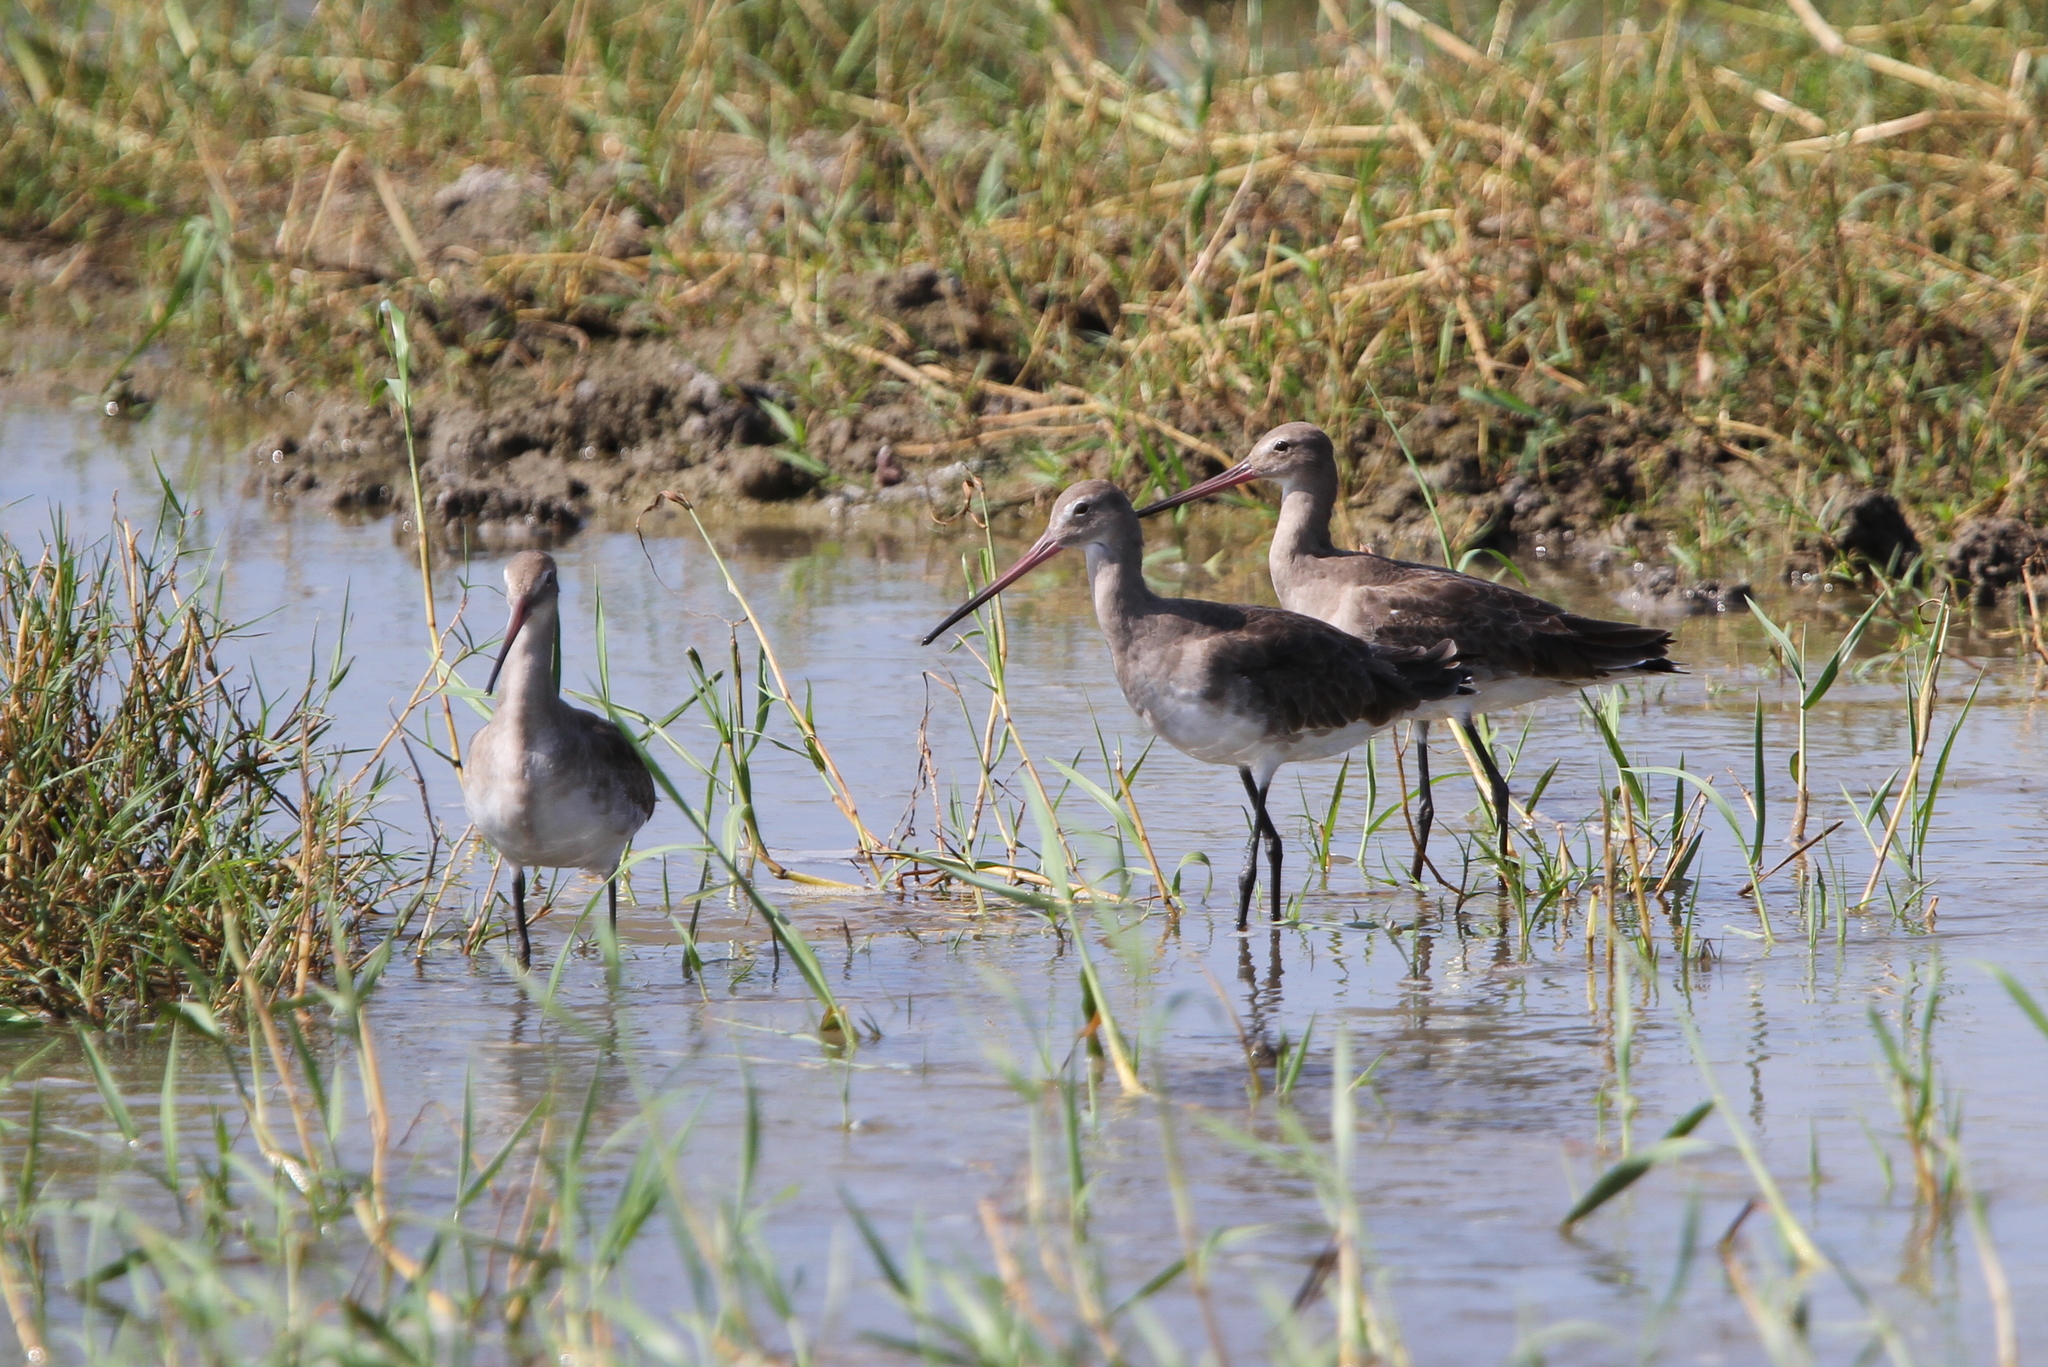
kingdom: Animalia
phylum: Chordata
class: Aves
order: Charadriiformes
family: Scolopacidae
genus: Limosa
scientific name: Limosa limosa
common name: Black-tailed godwit
